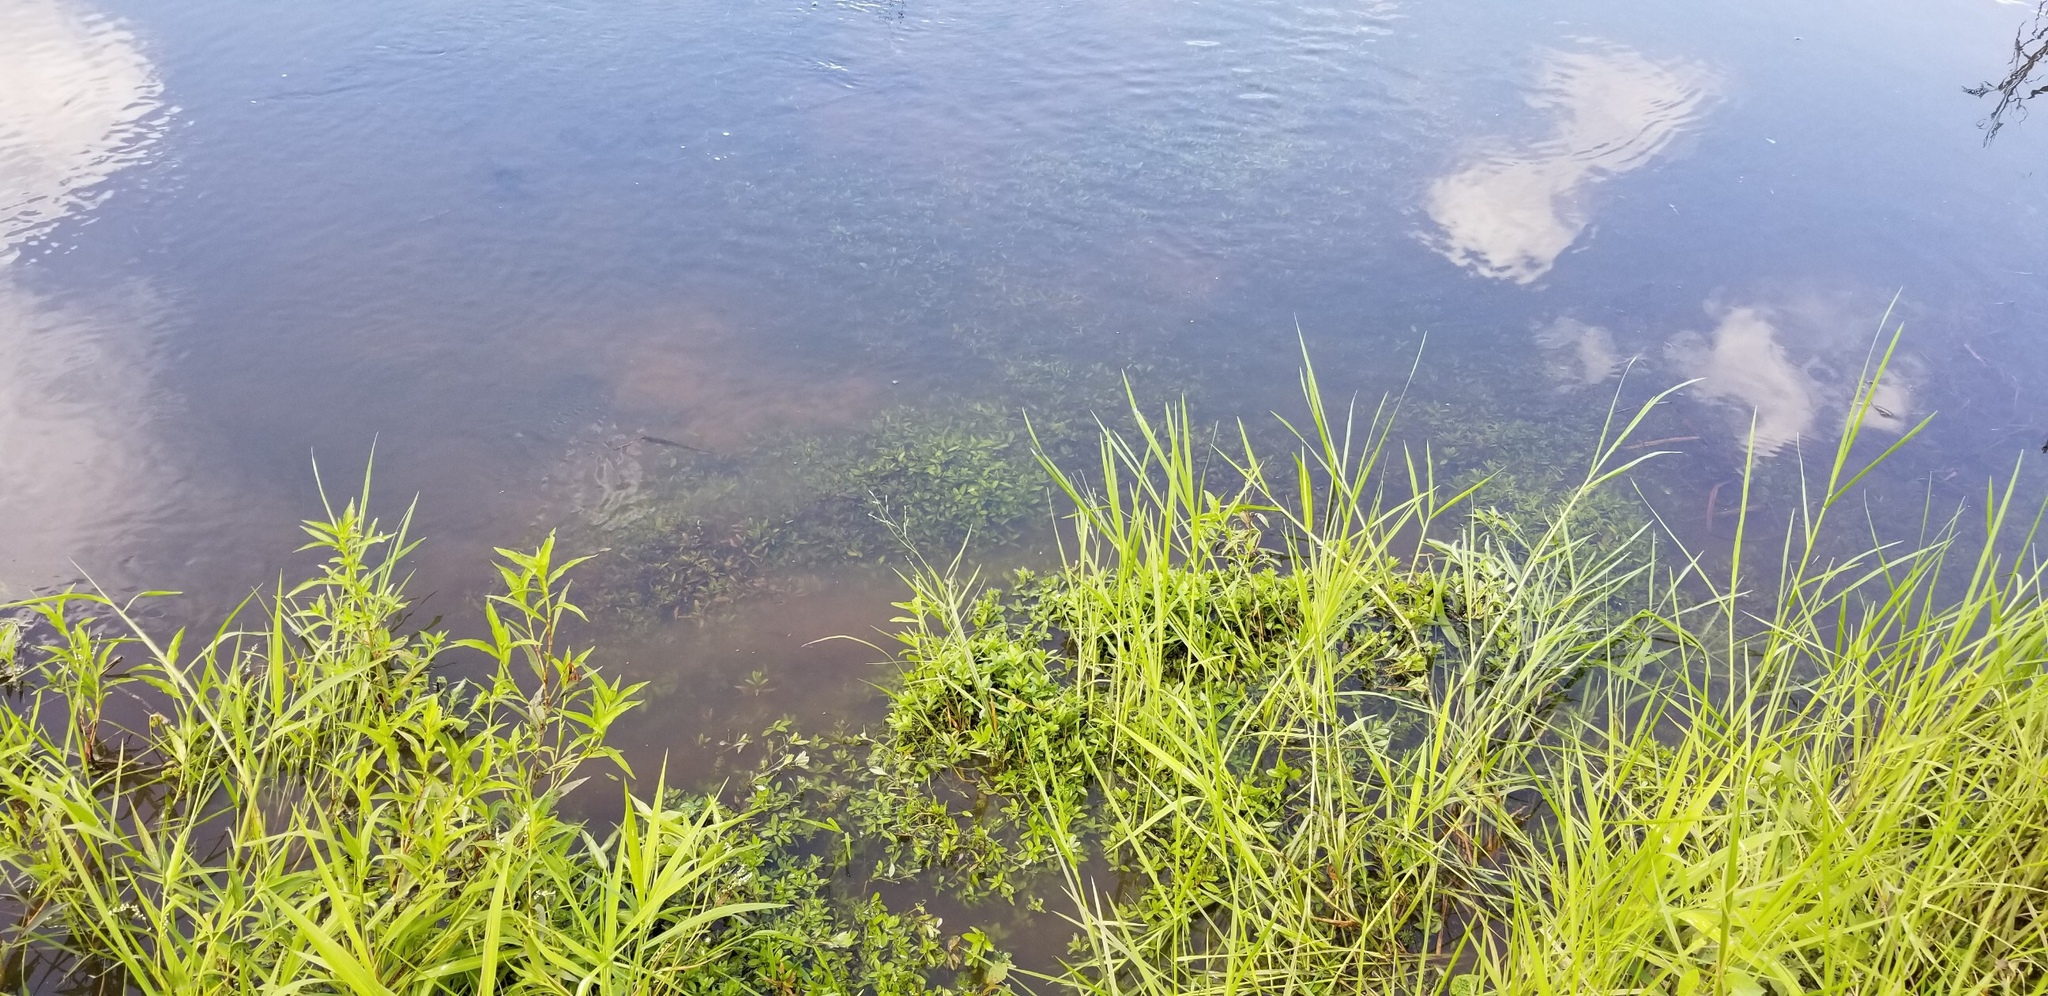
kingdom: Plantae
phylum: Tracheophyta
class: Magnoliopsida
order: Lamiales
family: Acanthaceae
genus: Hygrophila
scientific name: Hygrophila polysperma
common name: Indian swampweed
